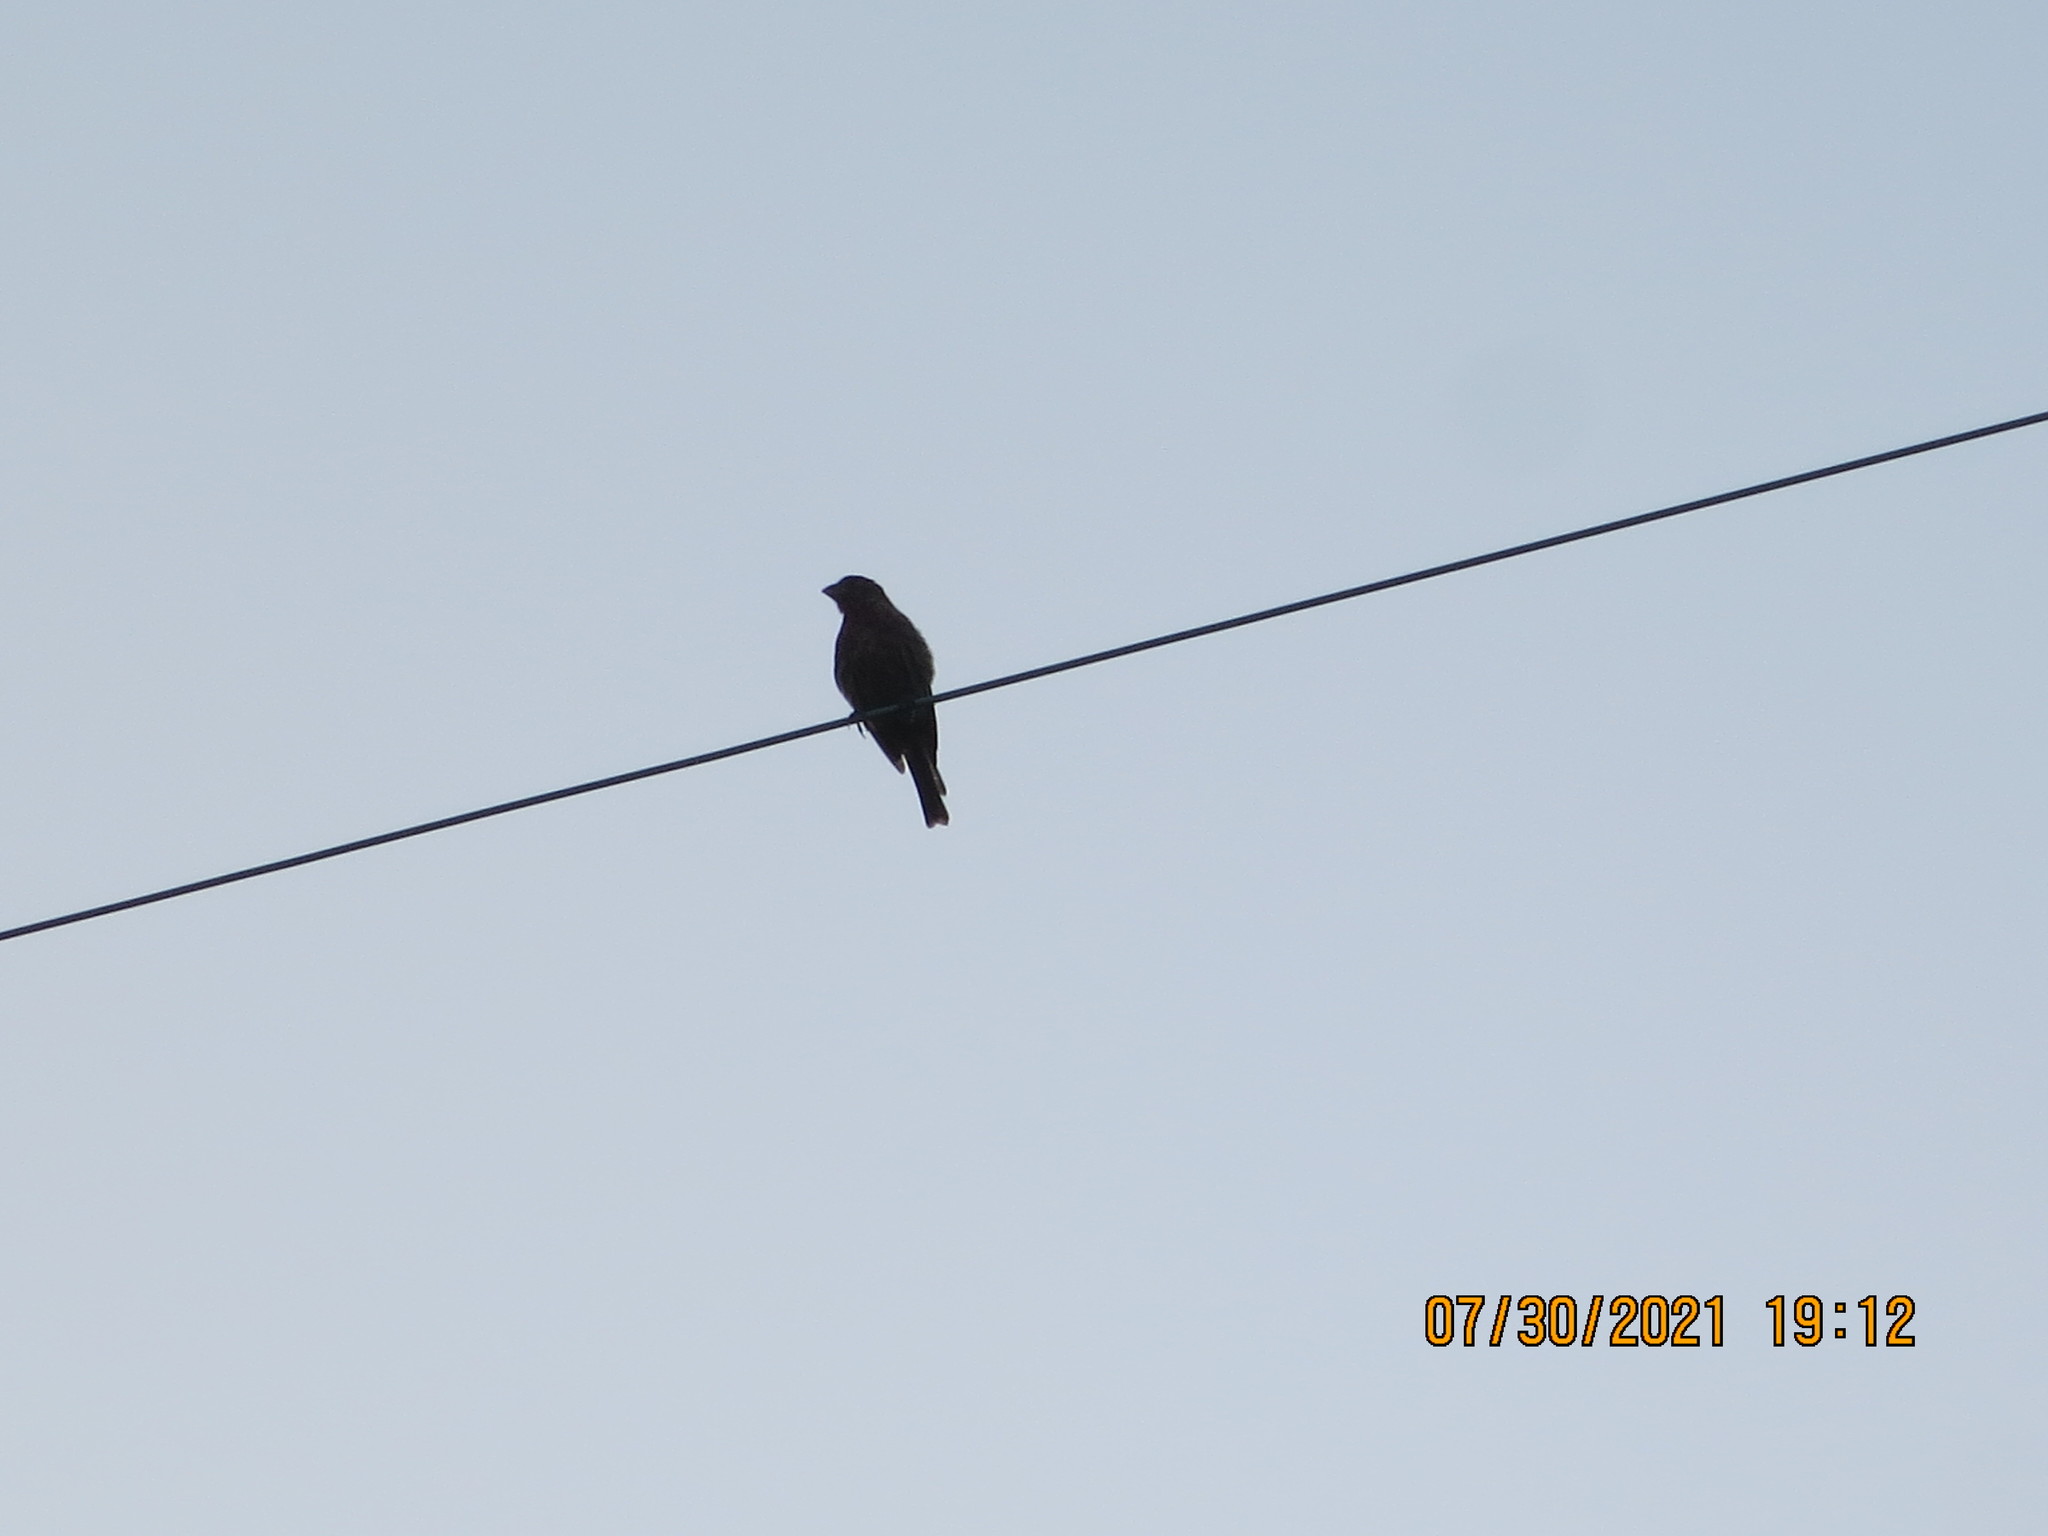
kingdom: Animalia
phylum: Chordata
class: Aves
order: Passeriformes
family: Fringillidae
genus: Haemorhous
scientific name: Haemorhous mexicanus
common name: House finch
